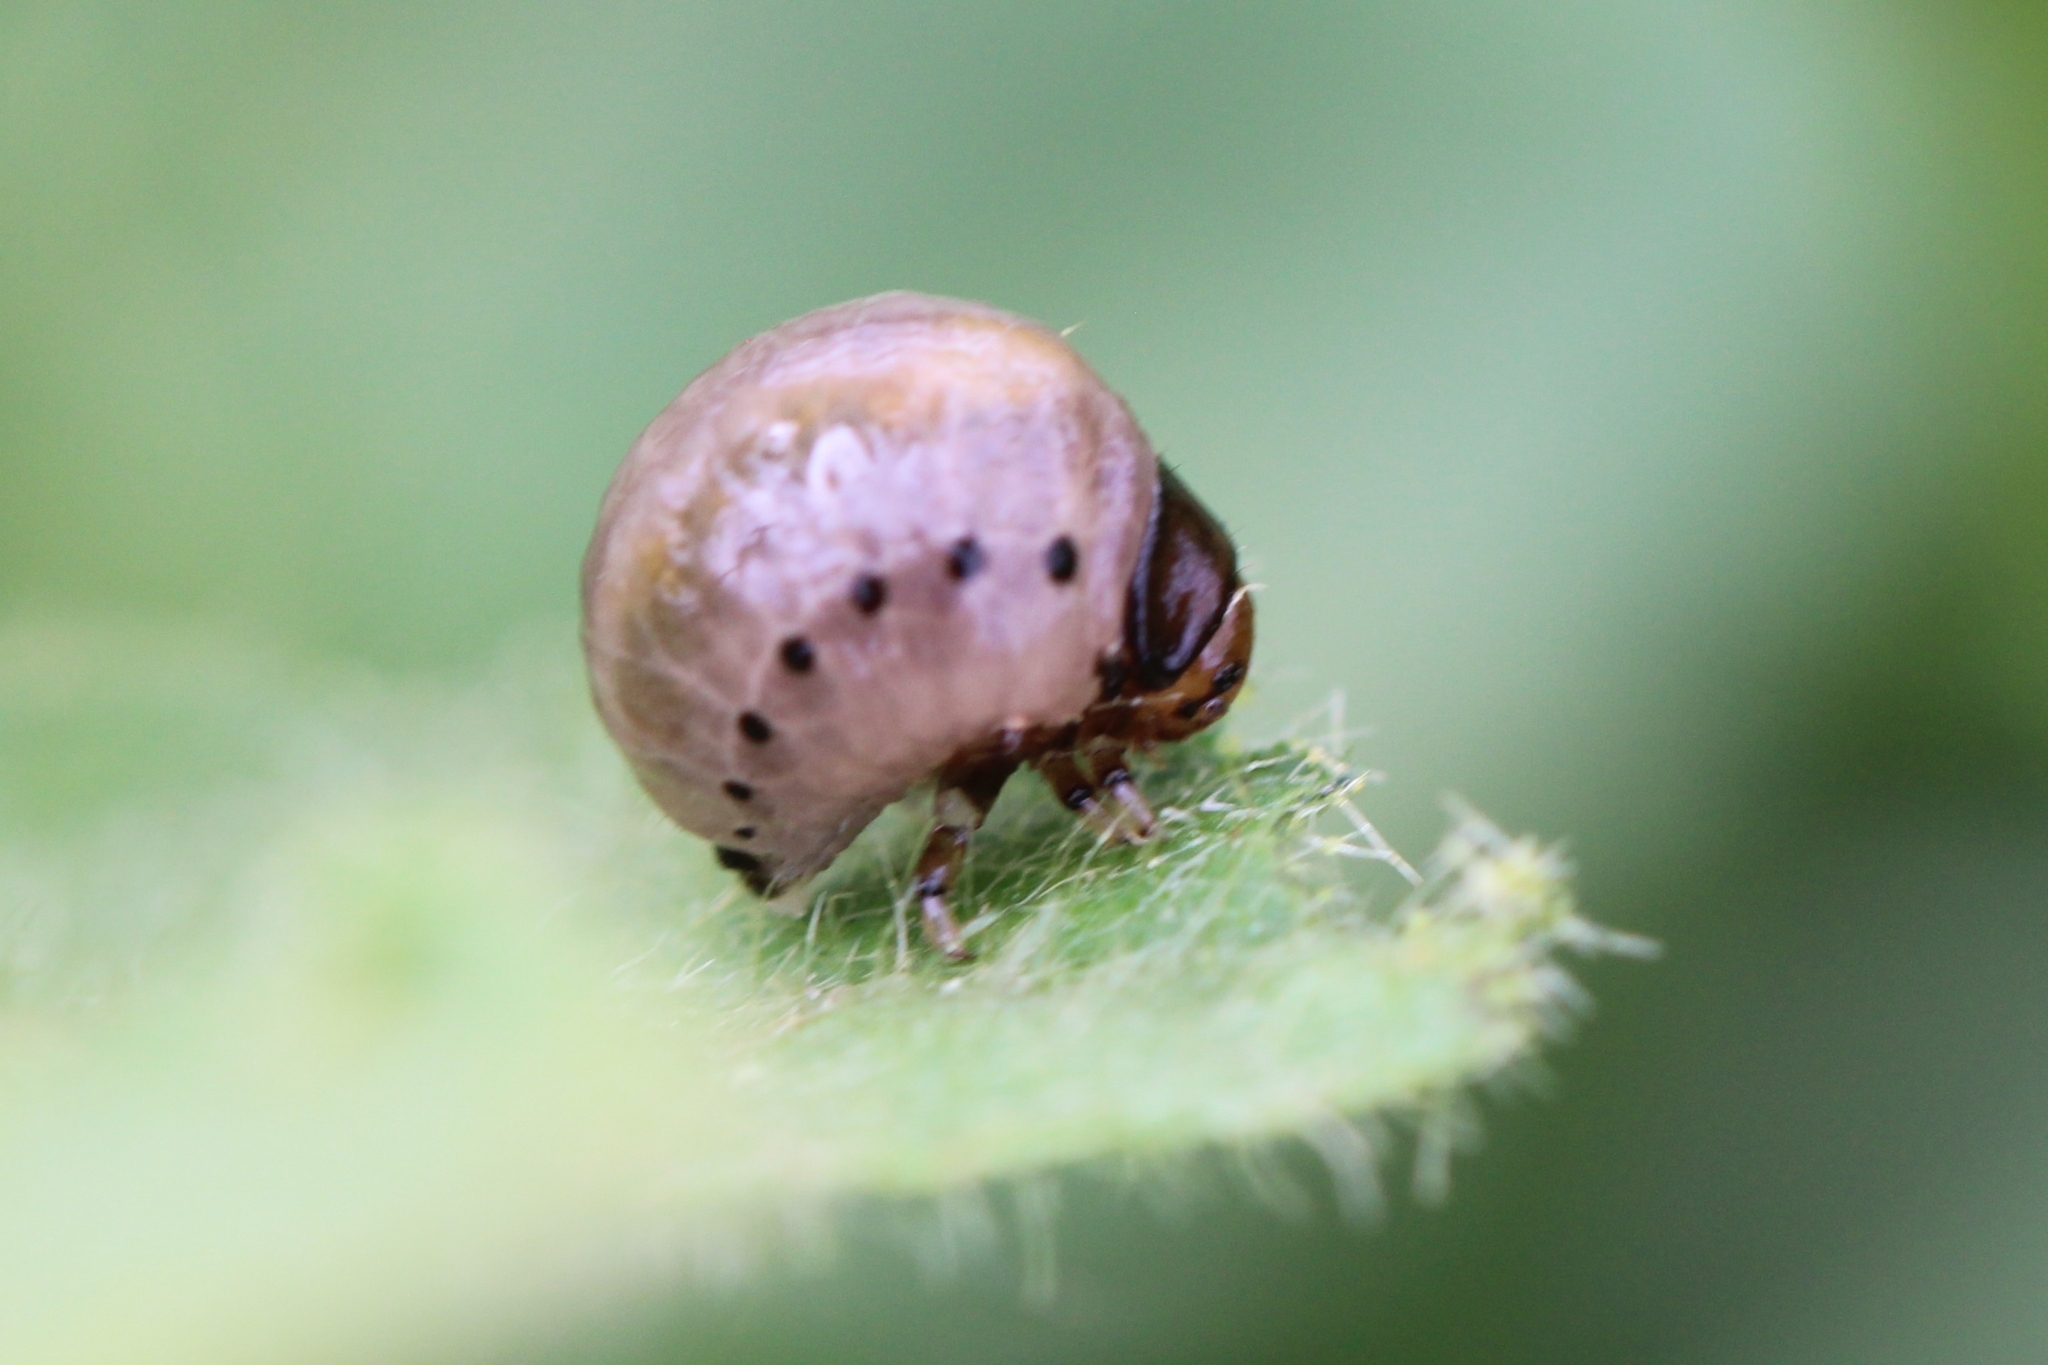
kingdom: Animalia
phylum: Arthropoda
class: Insecta
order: Coleoptera
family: Chrysomelidae
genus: Leptinotarsa
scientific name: Leptinotarsa juncta
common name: False potato beetle
